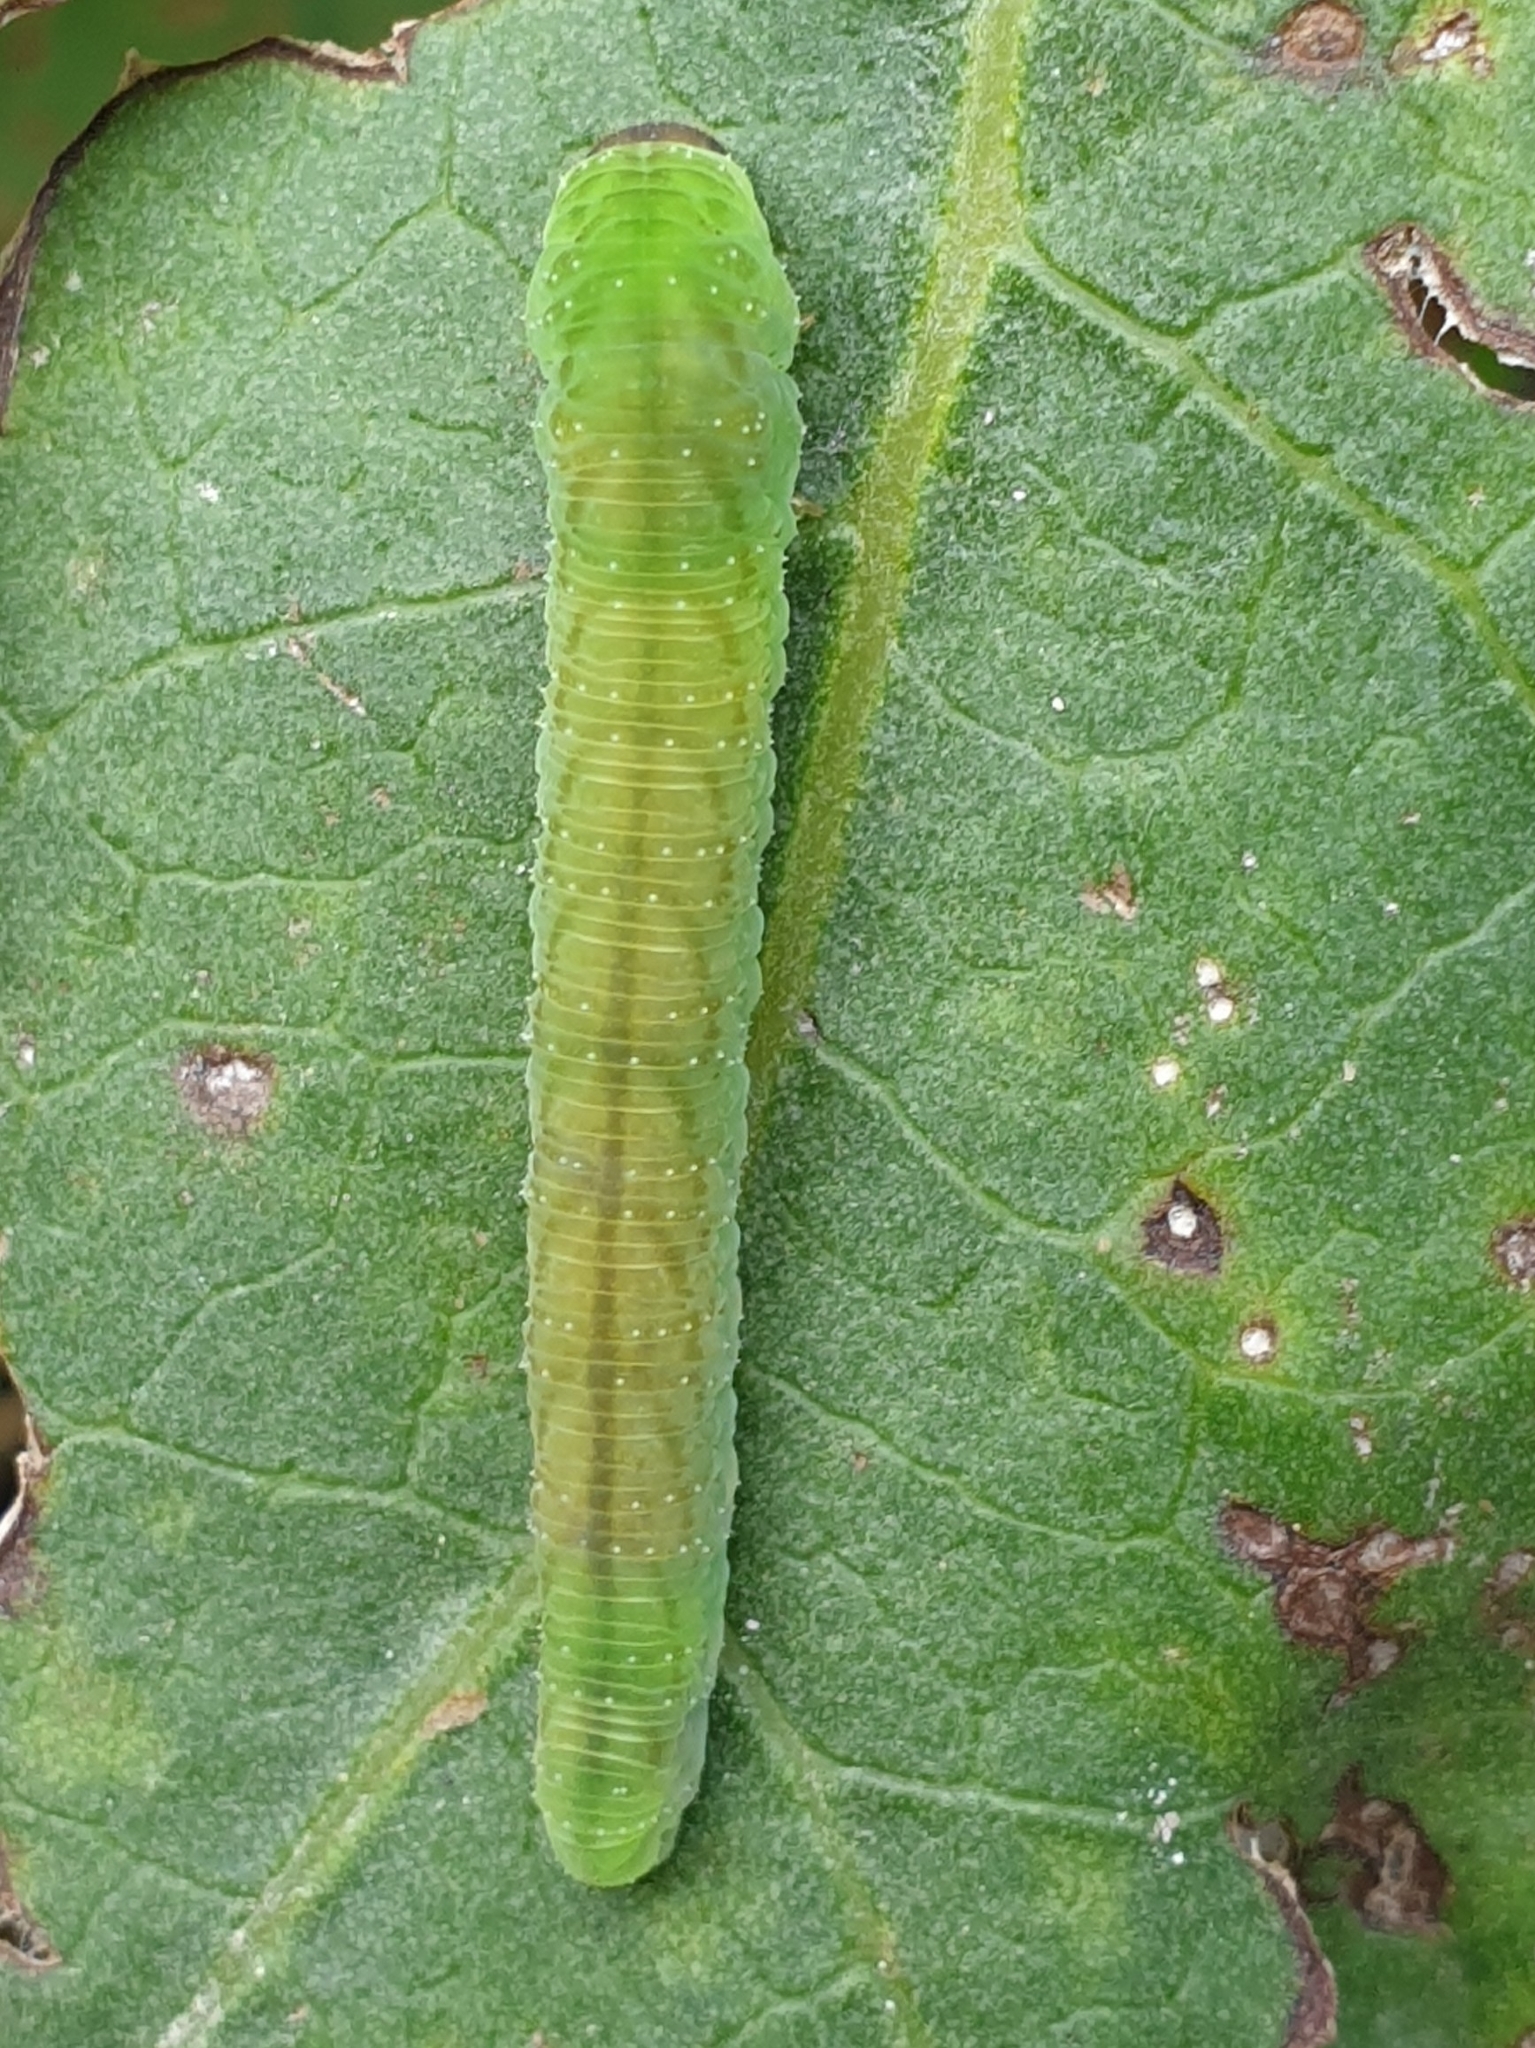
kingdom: Animalia
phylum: Arthropoda
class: Insecta
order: Hymenoptera
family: Tenthredinidae
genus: Tenthredo
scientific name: Tenthredo atra
